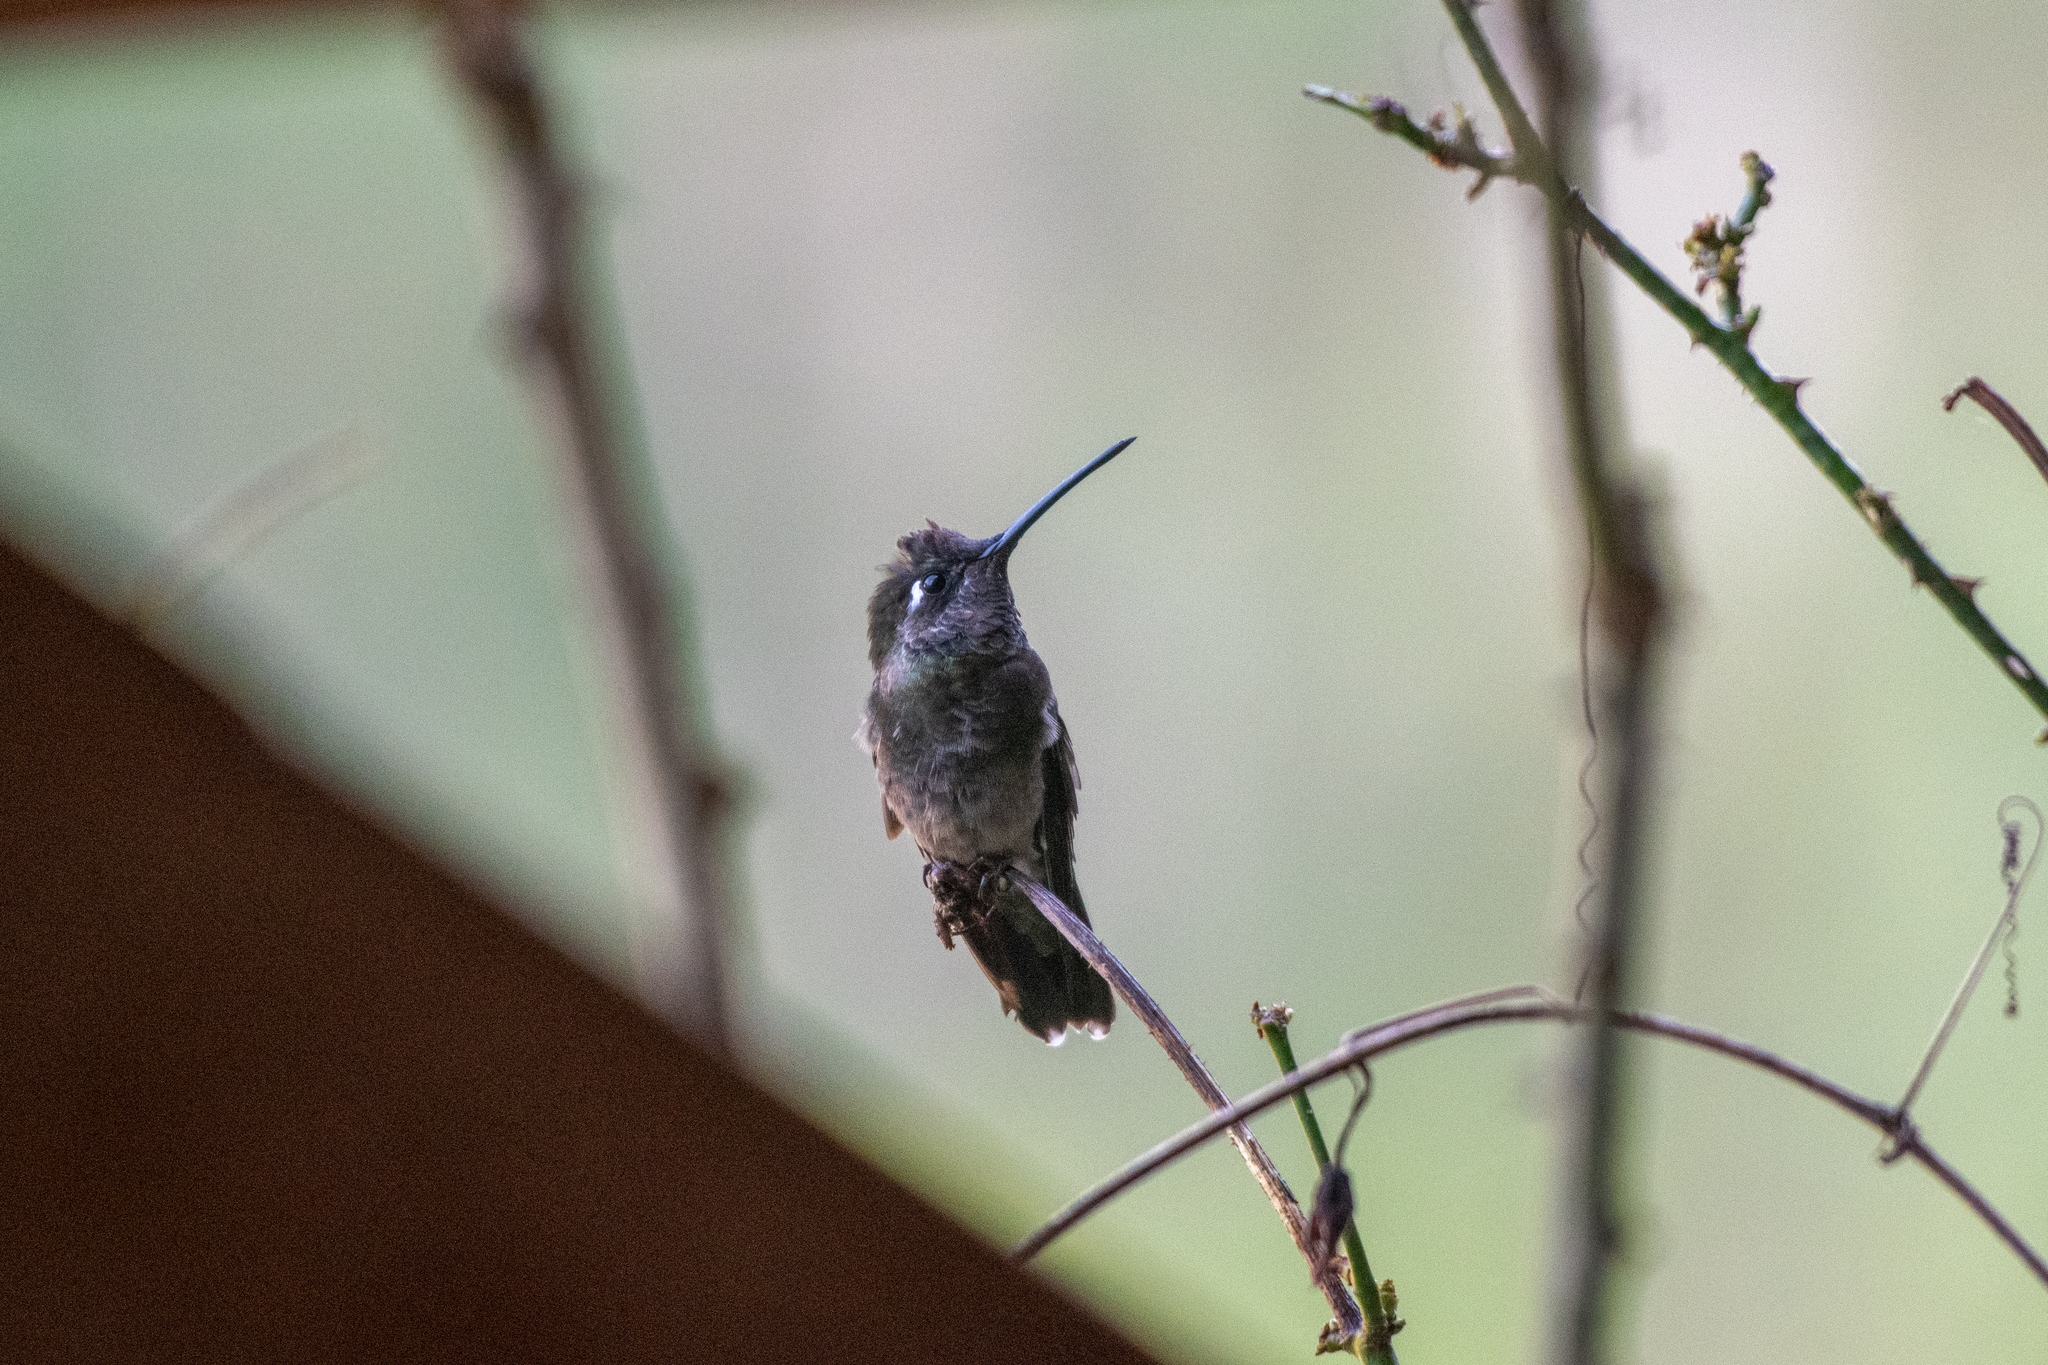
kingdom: Animalia
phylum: Chordata
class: Aves
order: Apodiformes
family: Trochilidae
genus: Eugenes
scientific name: Eugenes fulgens
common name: Magnificent hummingbird
